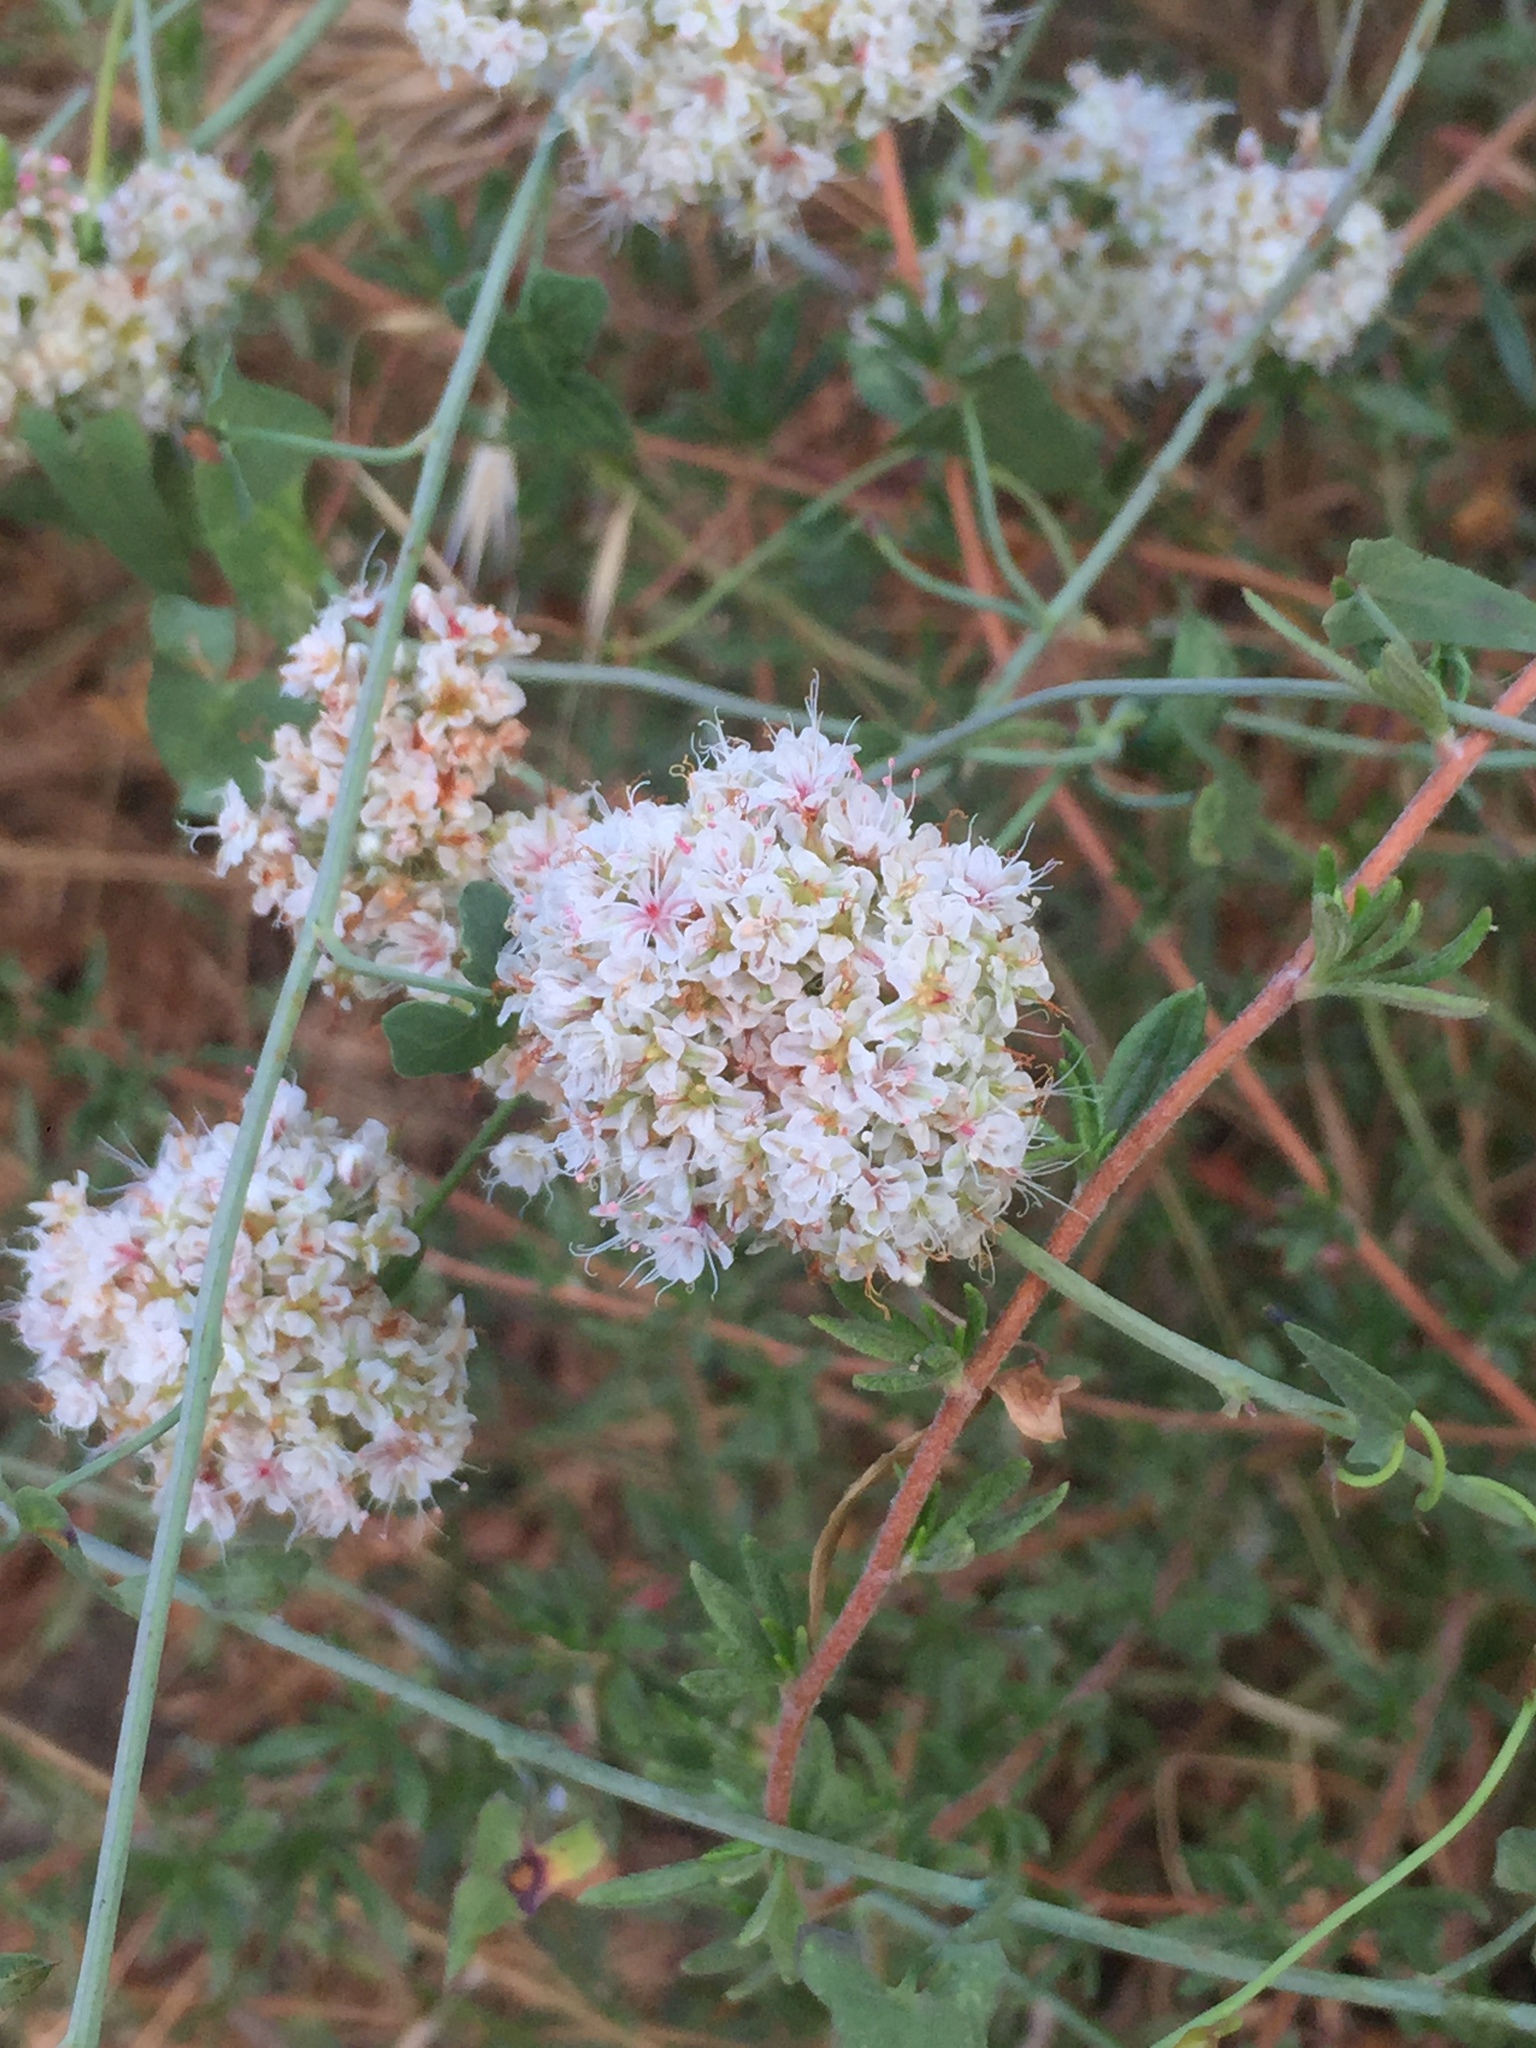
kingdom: Plantae
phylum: Tracheophyta
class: Magnoliopsida
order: Caryophyllales
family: Polygonaceae
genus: Eriogonum
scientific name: Eriogonum fasciculatum
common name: California wild buckwheat
